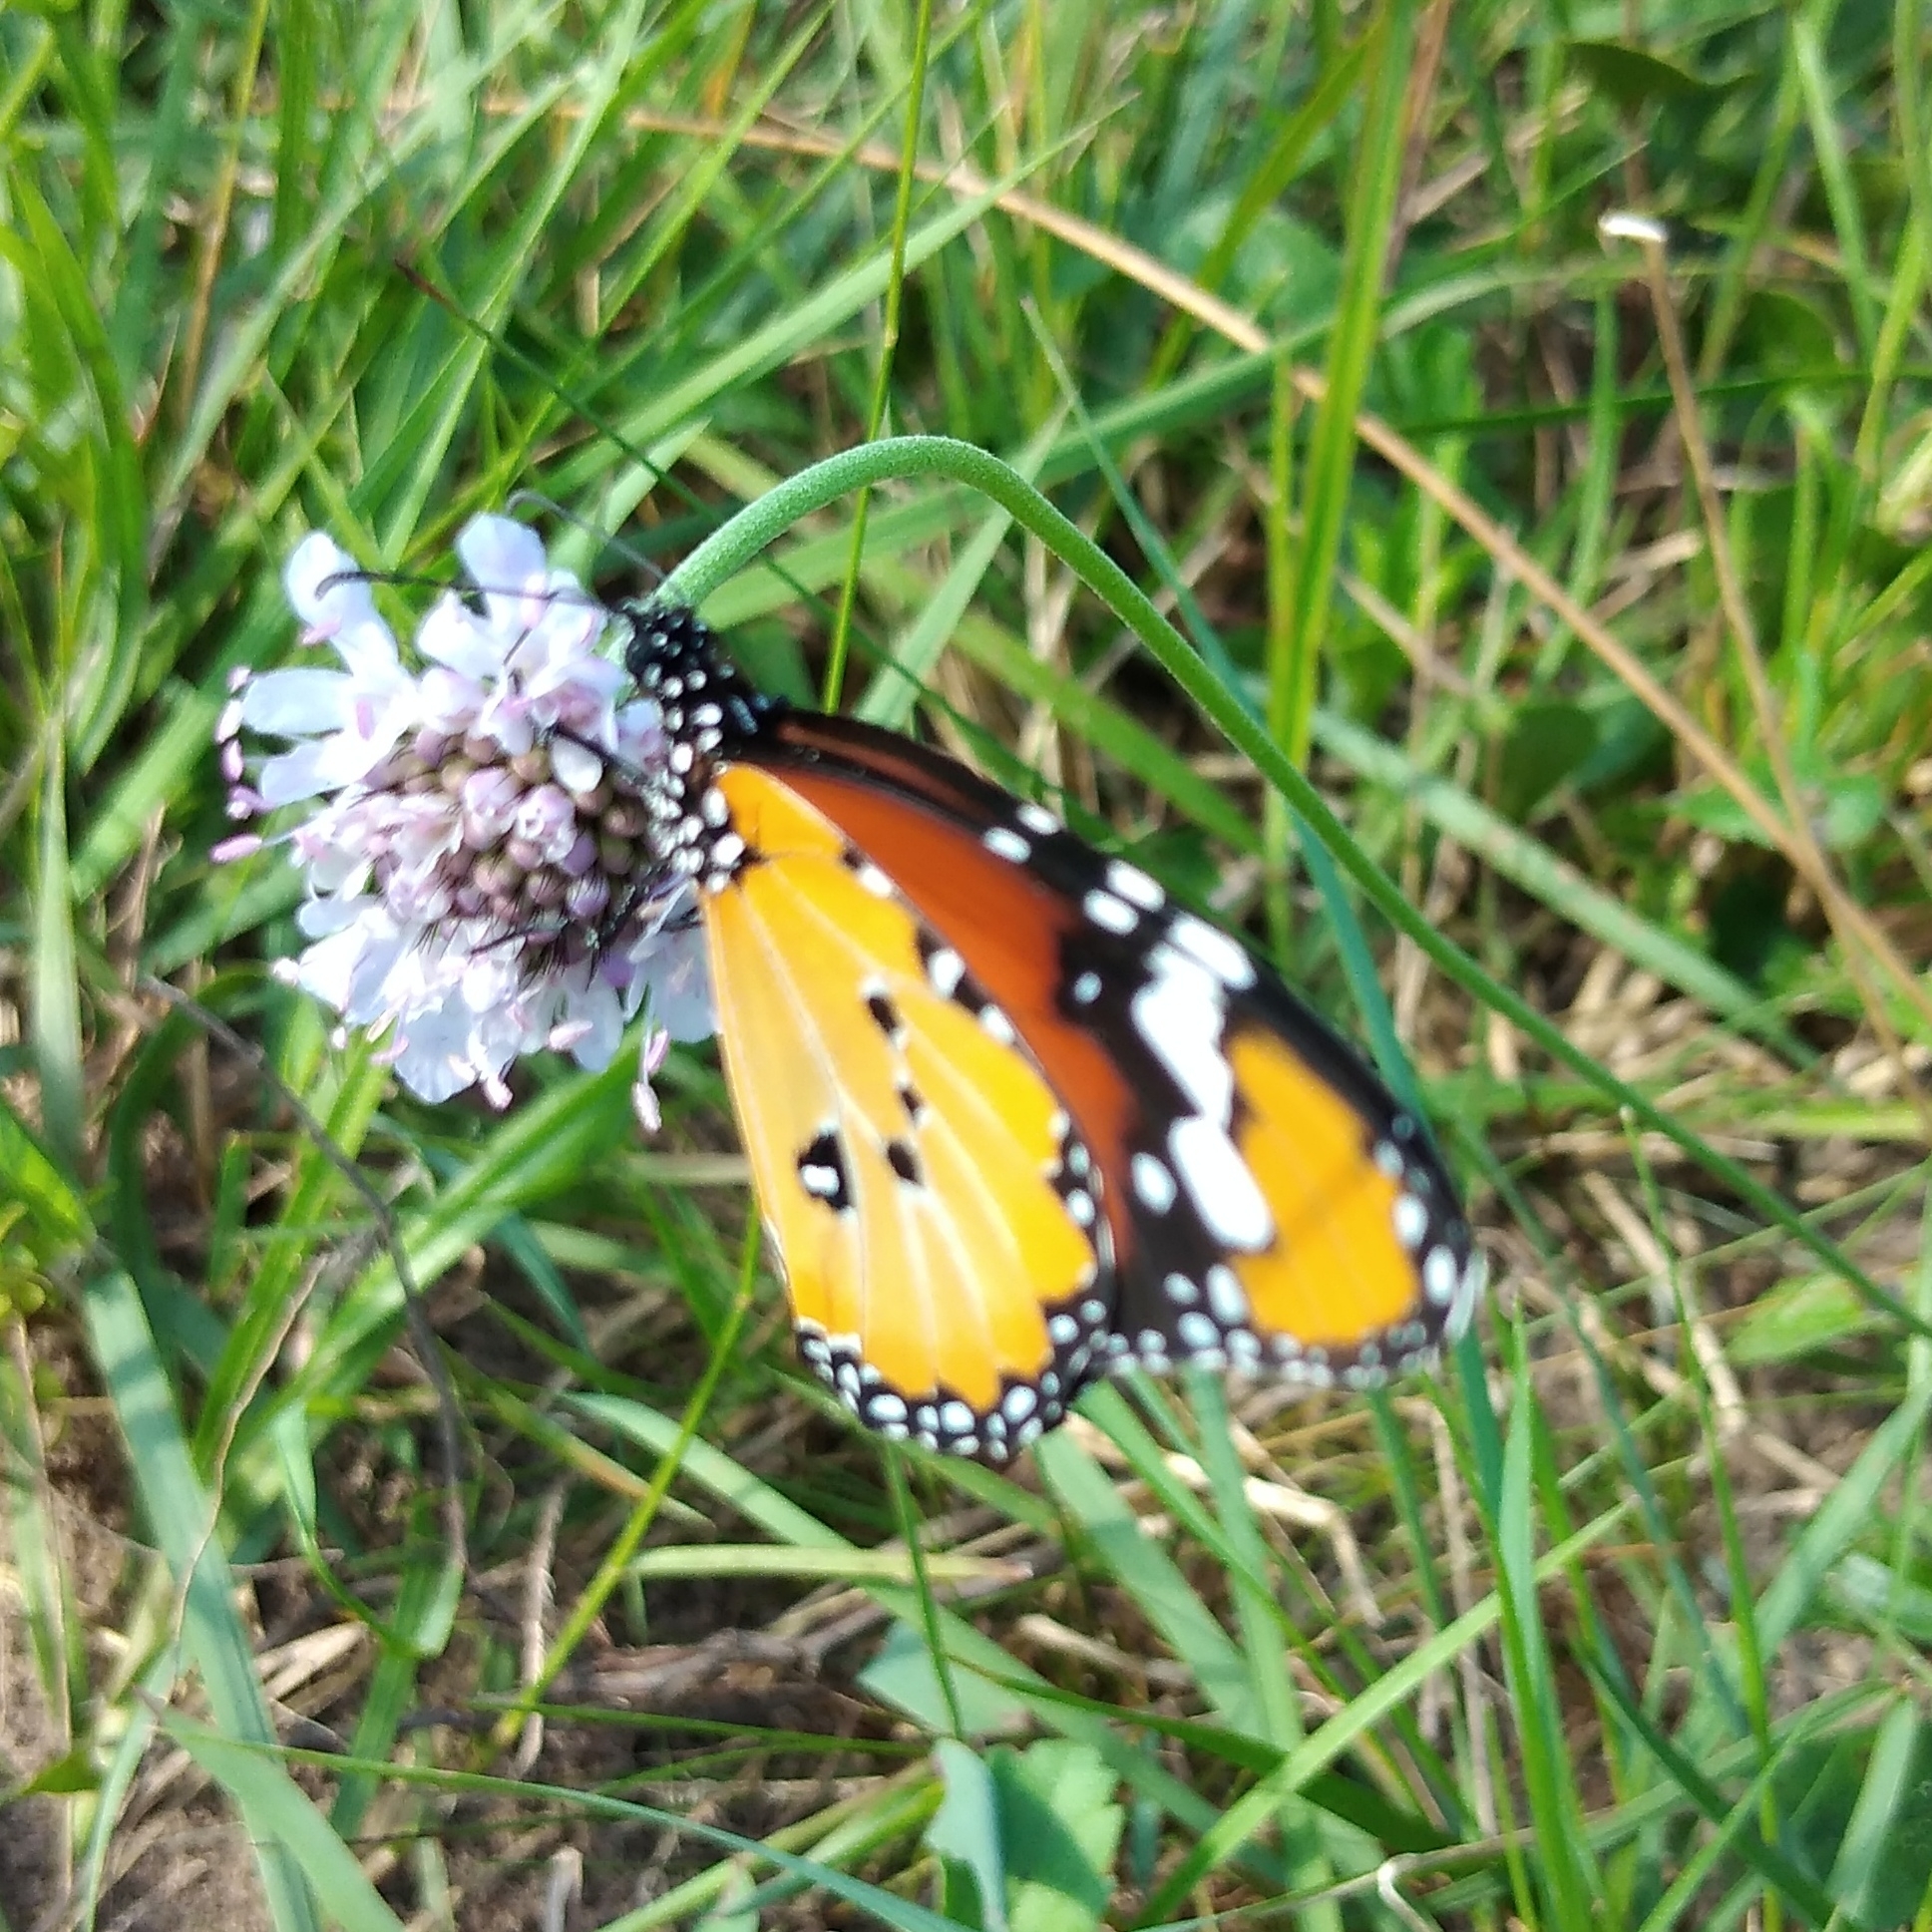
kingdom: Animalia
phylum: Arthropoda
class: Insecta
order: Lepidoptera
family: Nymphalidae
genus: Danaus
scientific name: Danaus chrysippus
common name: Plain tiger
